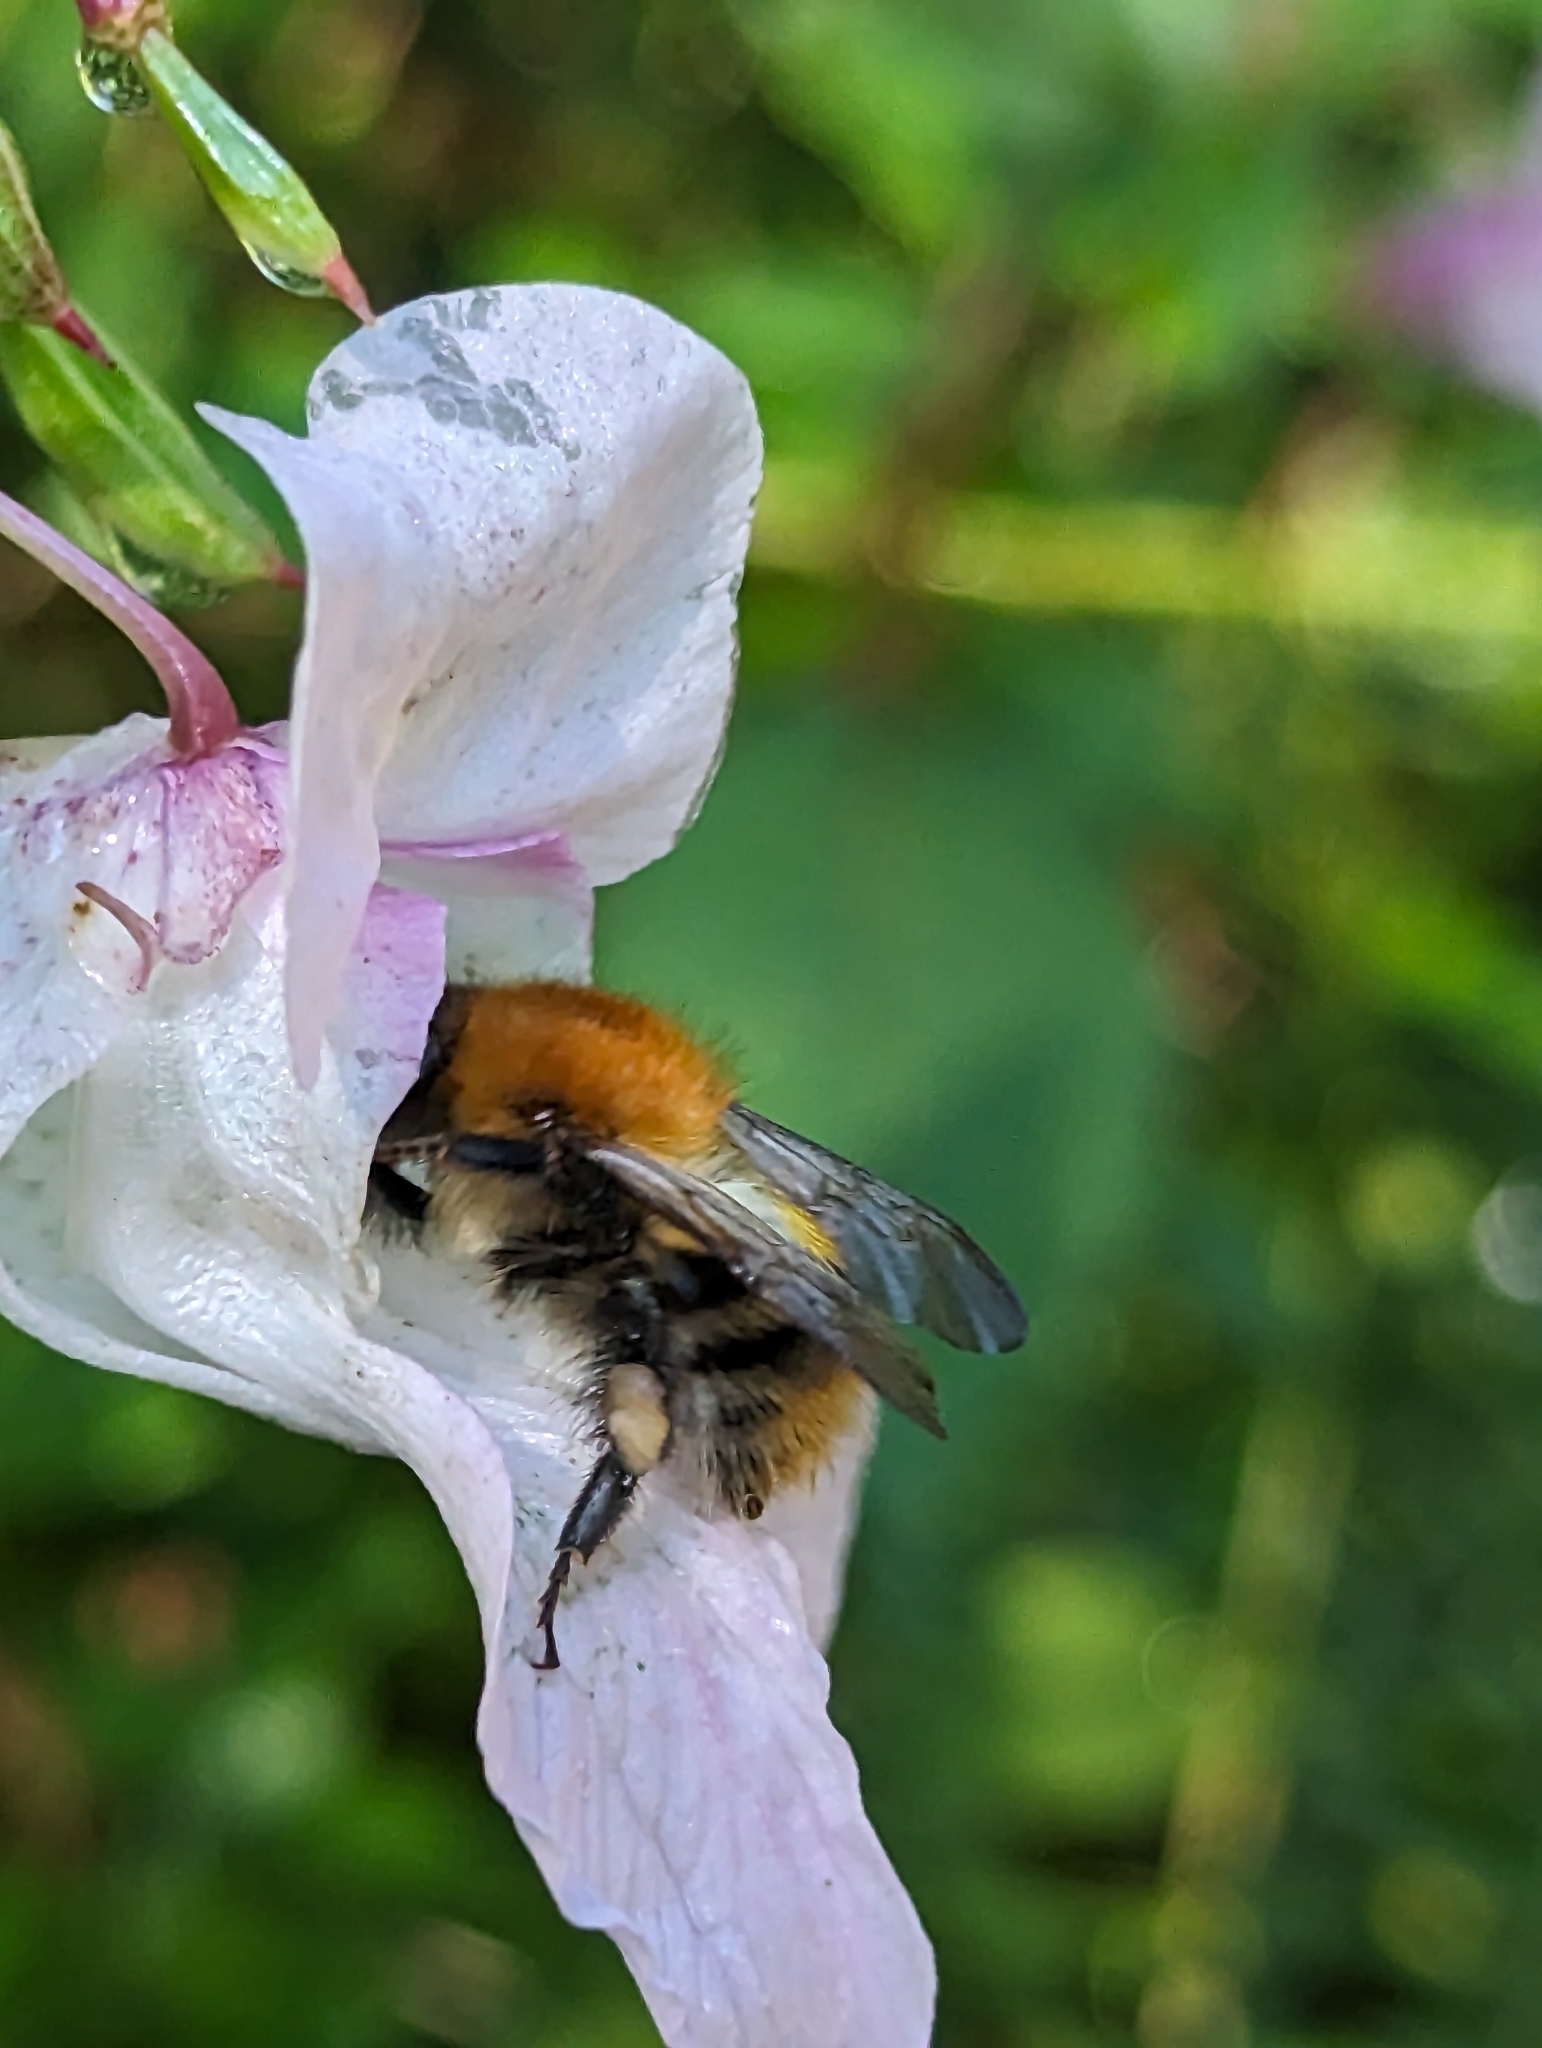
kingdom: Animalia
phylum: Arthropoda
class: Insecta
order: Hymenoptera
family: Apidae
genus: Bombus
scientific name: Bombus pascuorum
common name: Common carder bee
